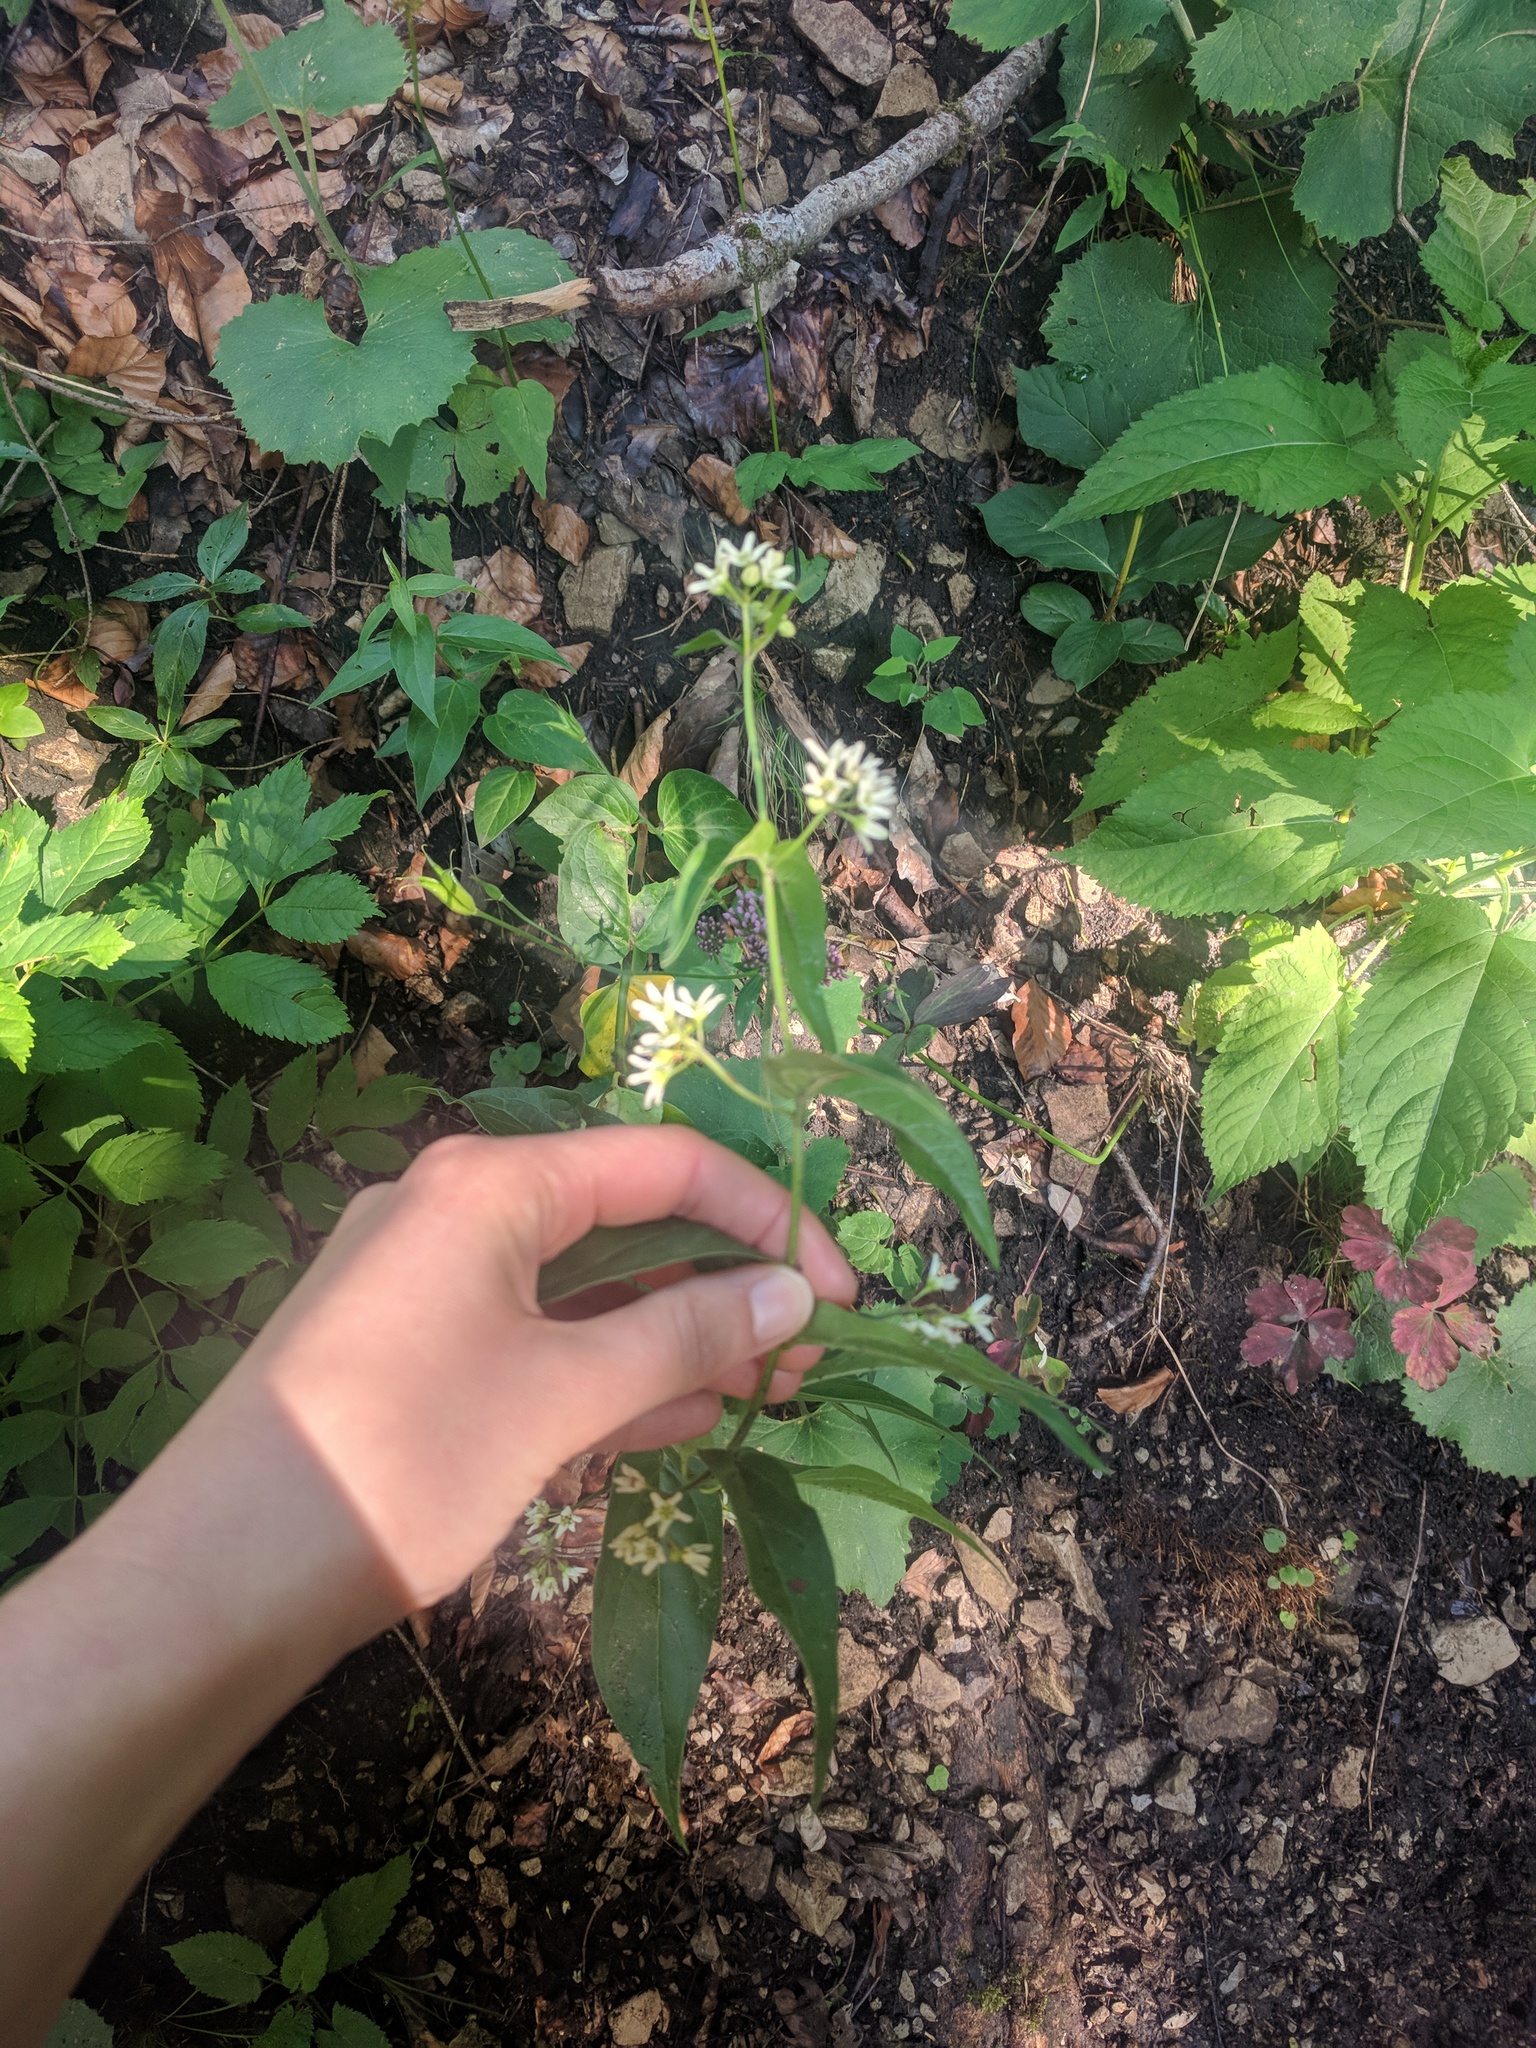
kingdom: Plantae
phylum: Tracheophyta
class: Magnoliopsida
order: Gentianales
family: Apocynaceae
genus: Vincetoxicum
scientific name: Vincetoxicum hirundinaria
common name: White swallowwort
